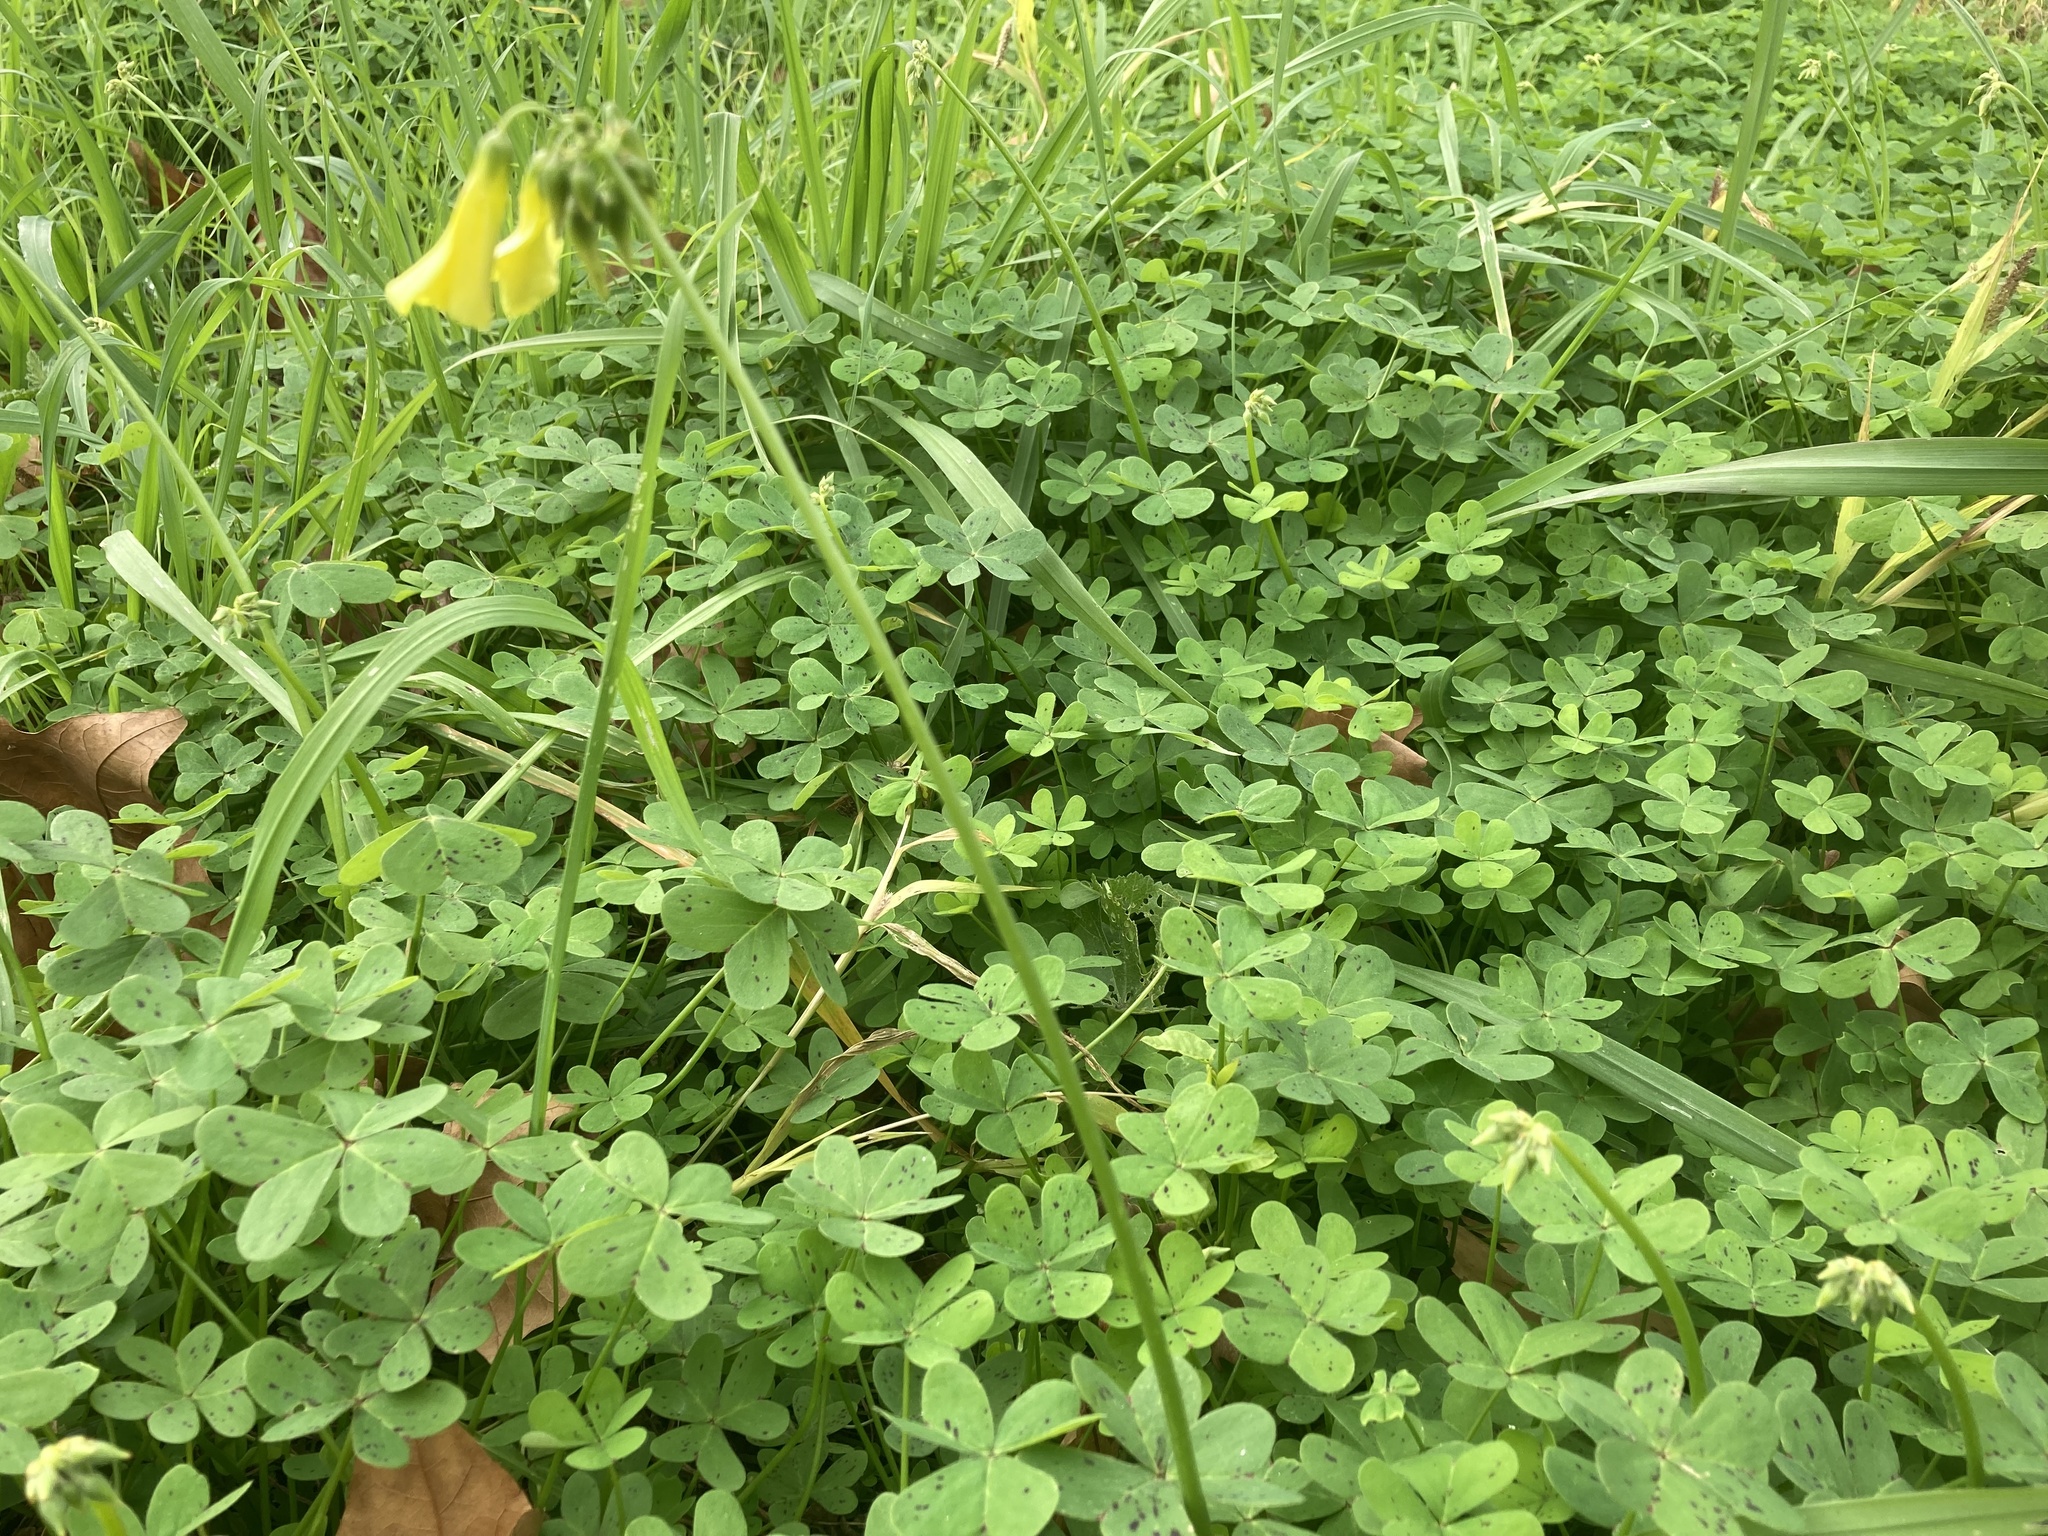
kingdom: Plantae
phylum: Tracheophyta
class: Magnoliopsida
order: Oxalidales
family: Oxalidaceae
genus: Oxalis
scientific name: Oxalis pes-caprae
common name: Bermuda-buttercup
